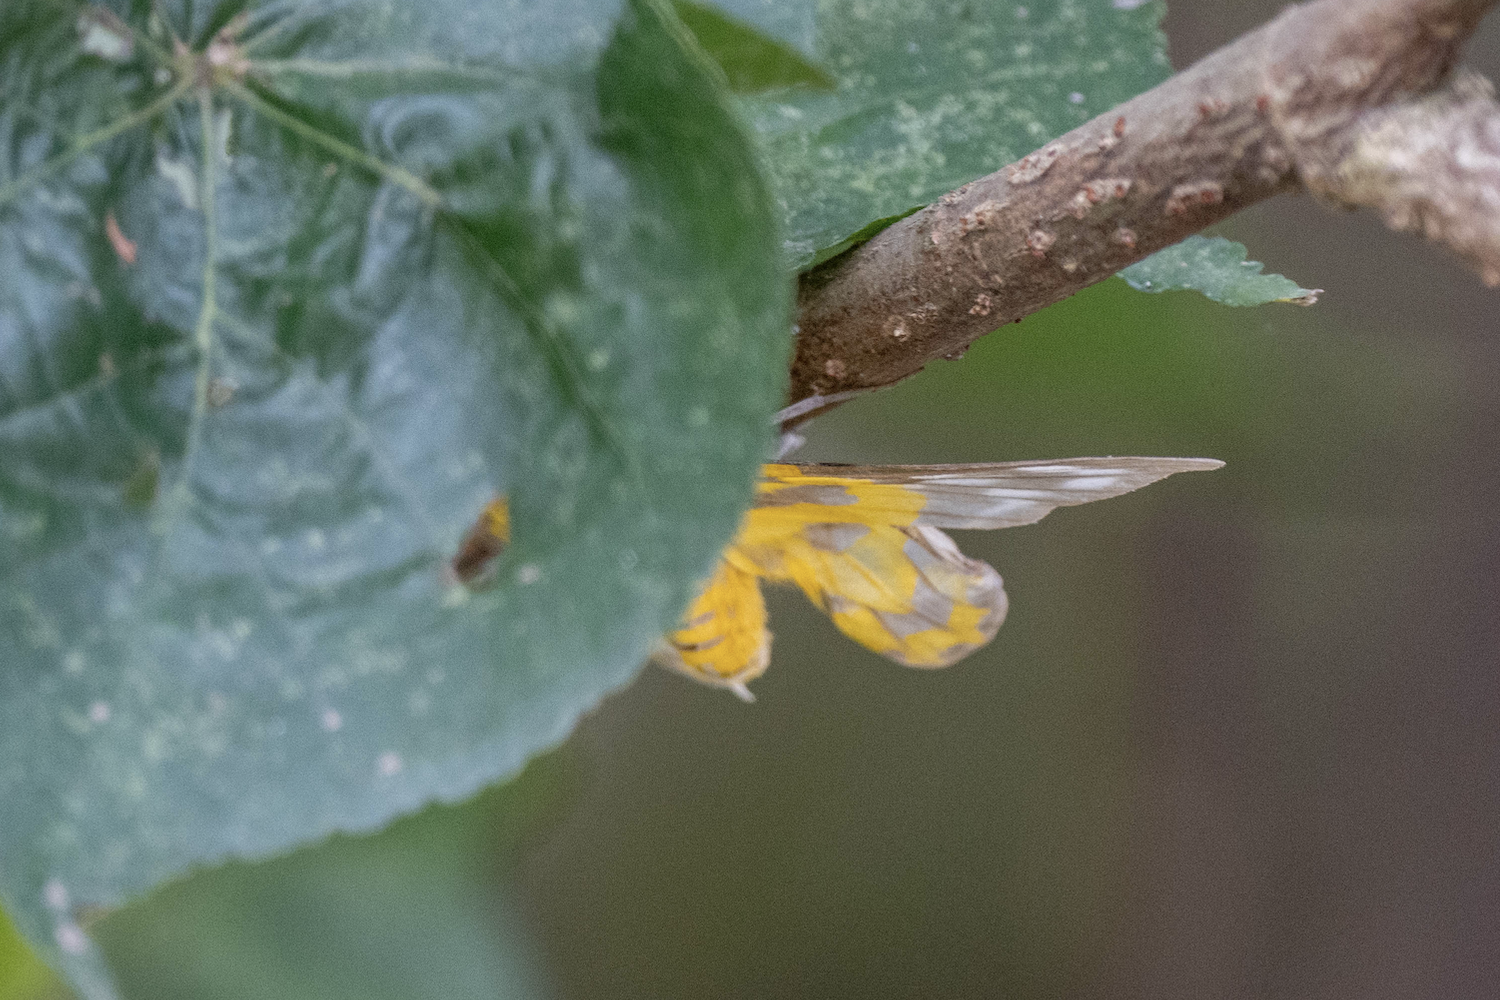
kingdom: Animalia
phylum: Arthropoda
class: Insecta
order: Lepidoptera
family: Geometridae
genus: Dysphania
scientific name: Dysphania militaris
